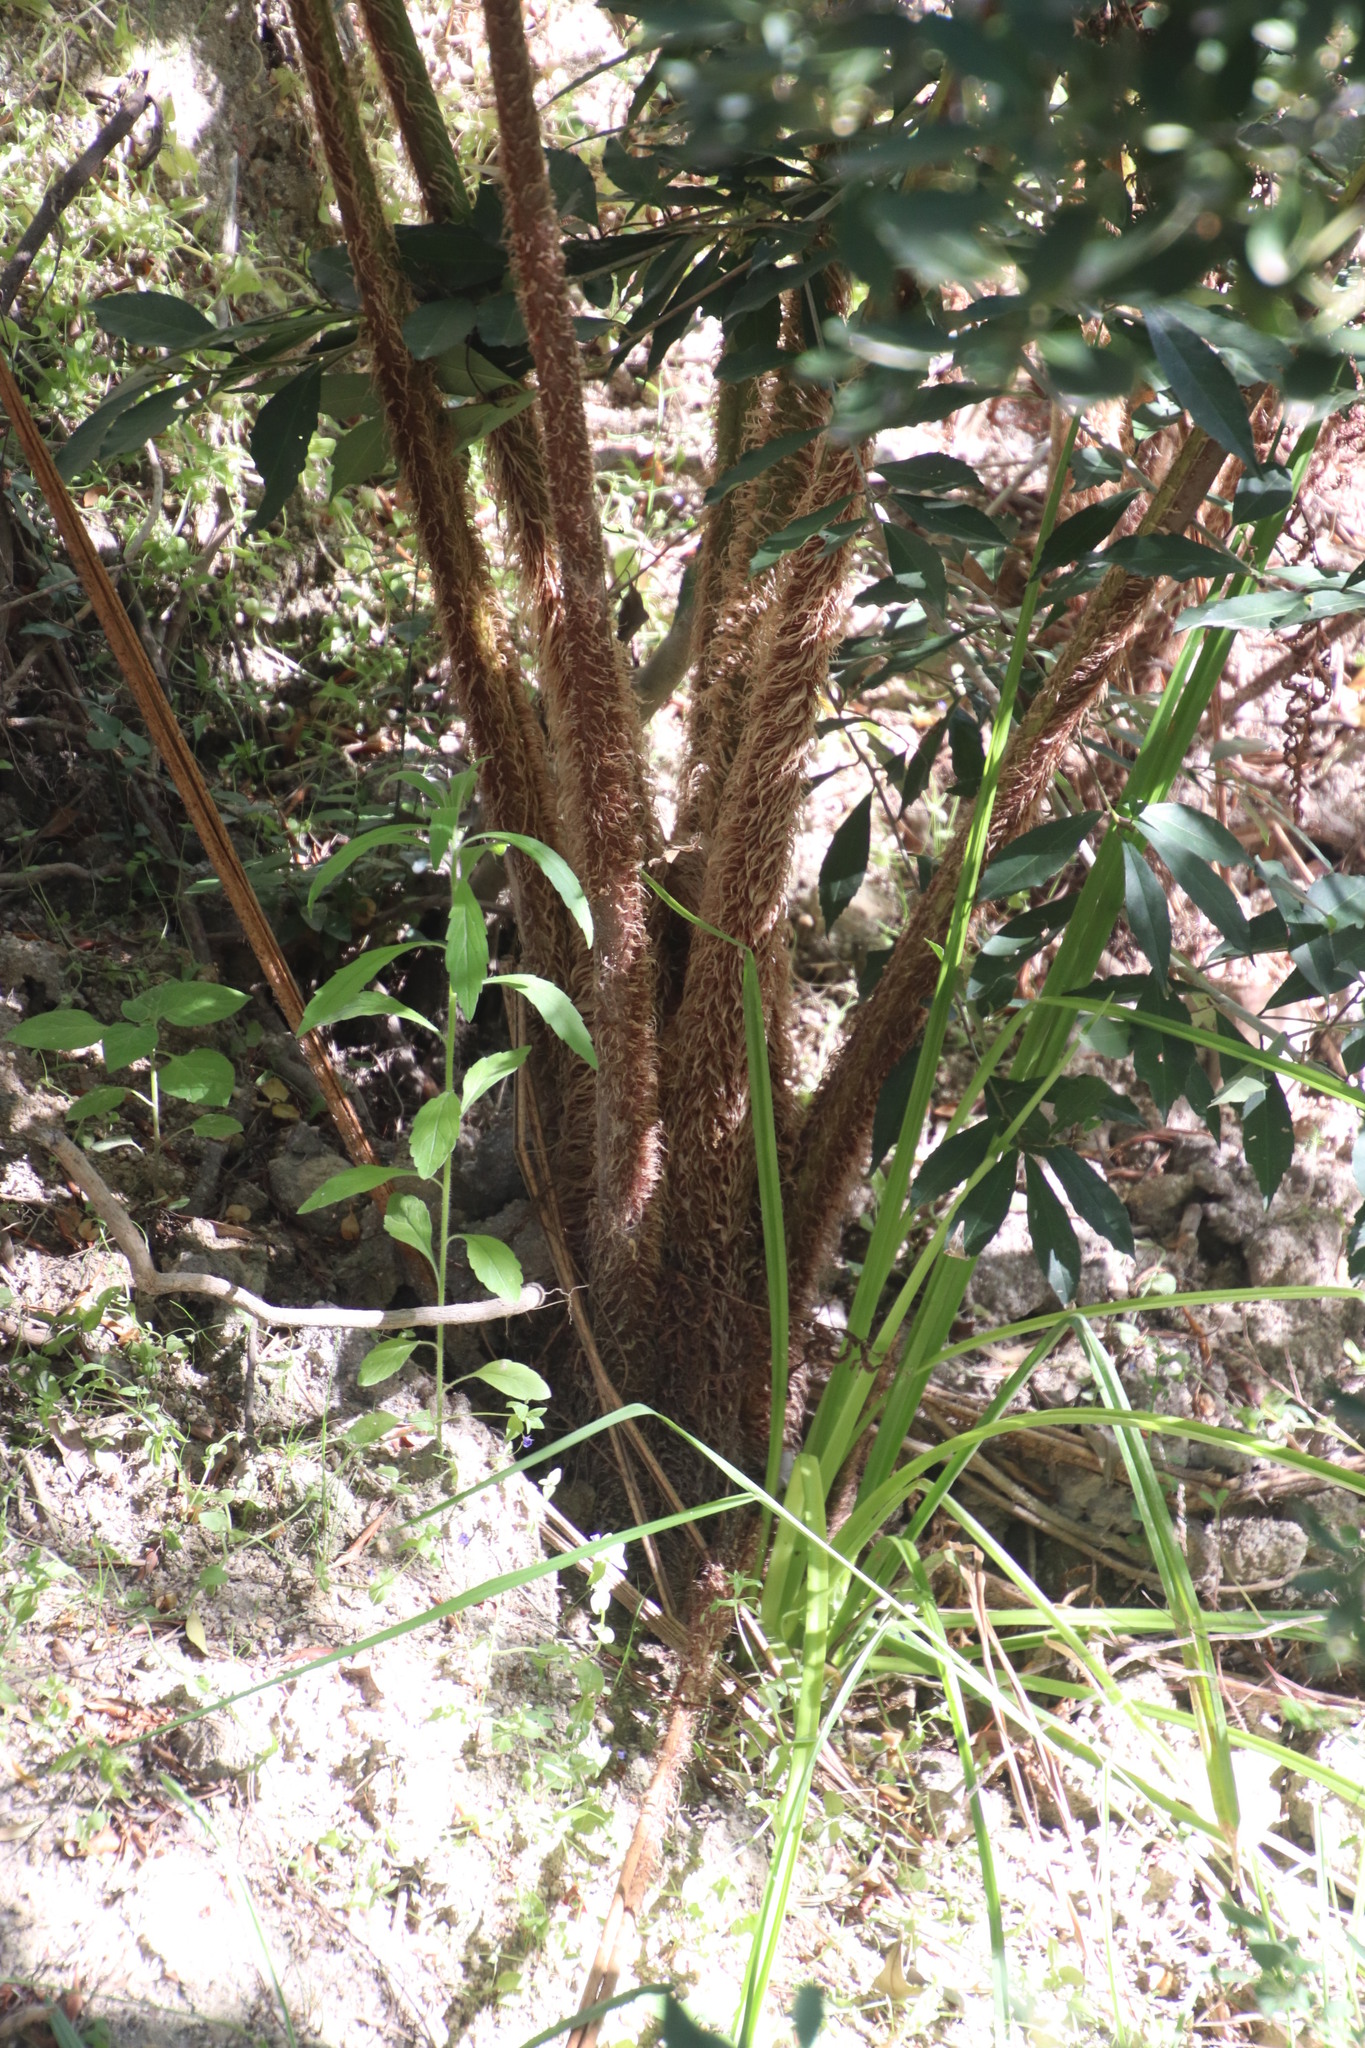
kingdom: Plantae
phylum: Tracheophyta
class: Polypodiopsida
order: Cyatheales
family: Cyatheaceae
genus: Sphaeropteris
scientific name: Sphaeropteris cooperi
